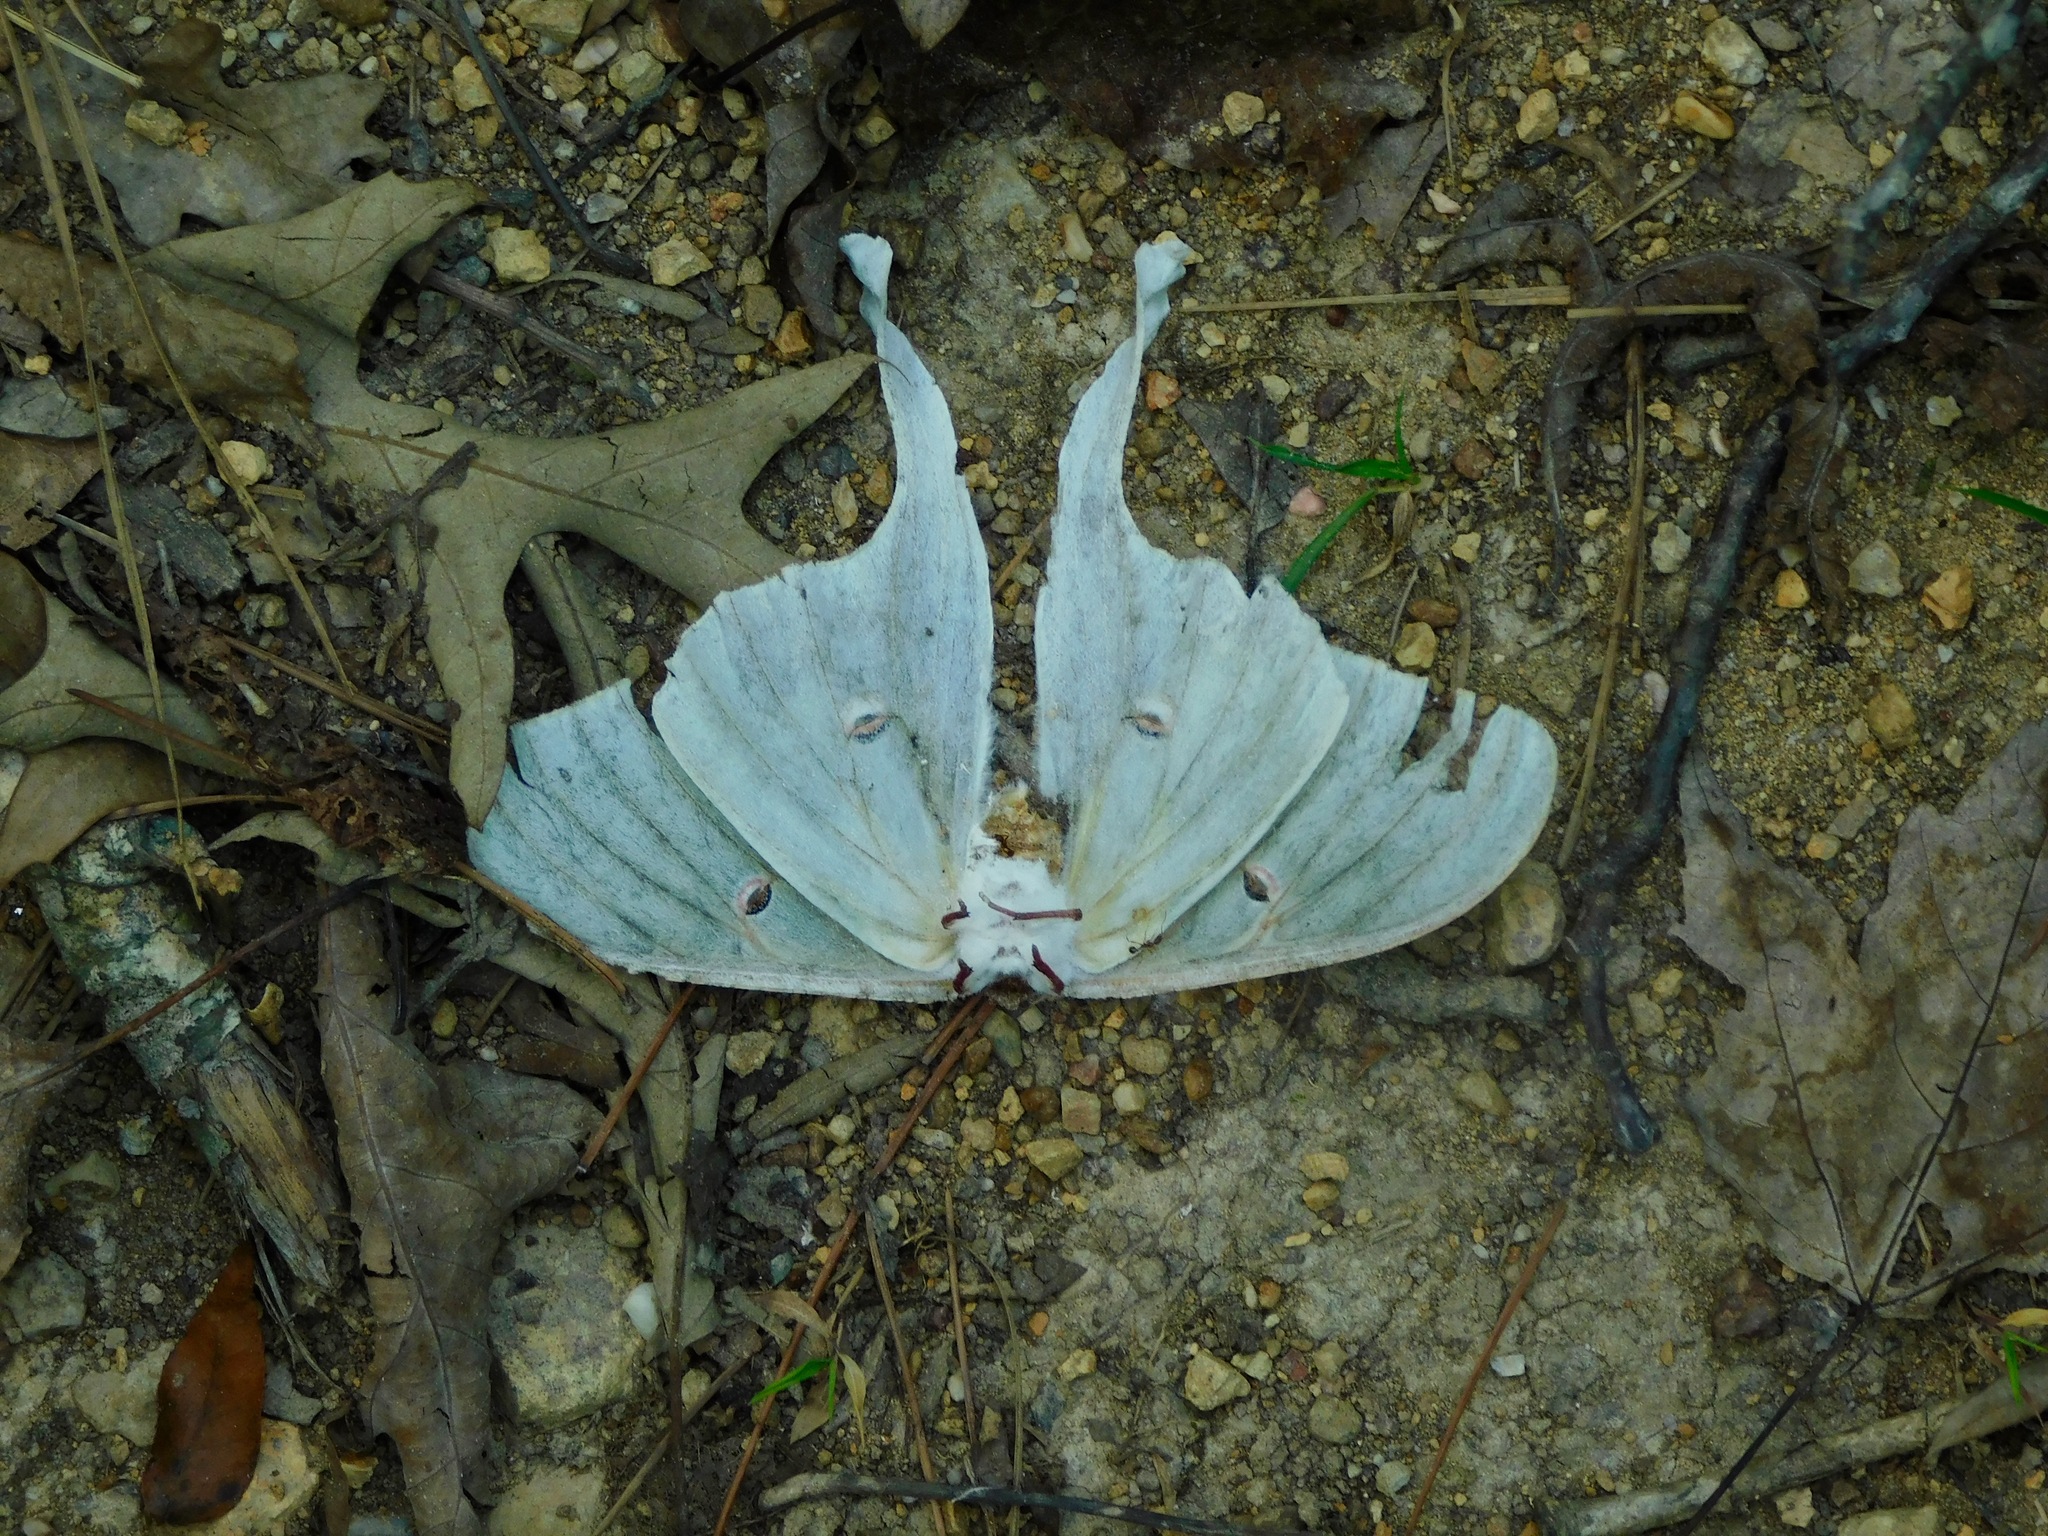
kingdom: Animalia
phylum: Arthropoda
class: Insecta
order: Lepidoptera
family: Saturniidae
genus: Actias
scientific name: Actias luna
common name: Luna moth
